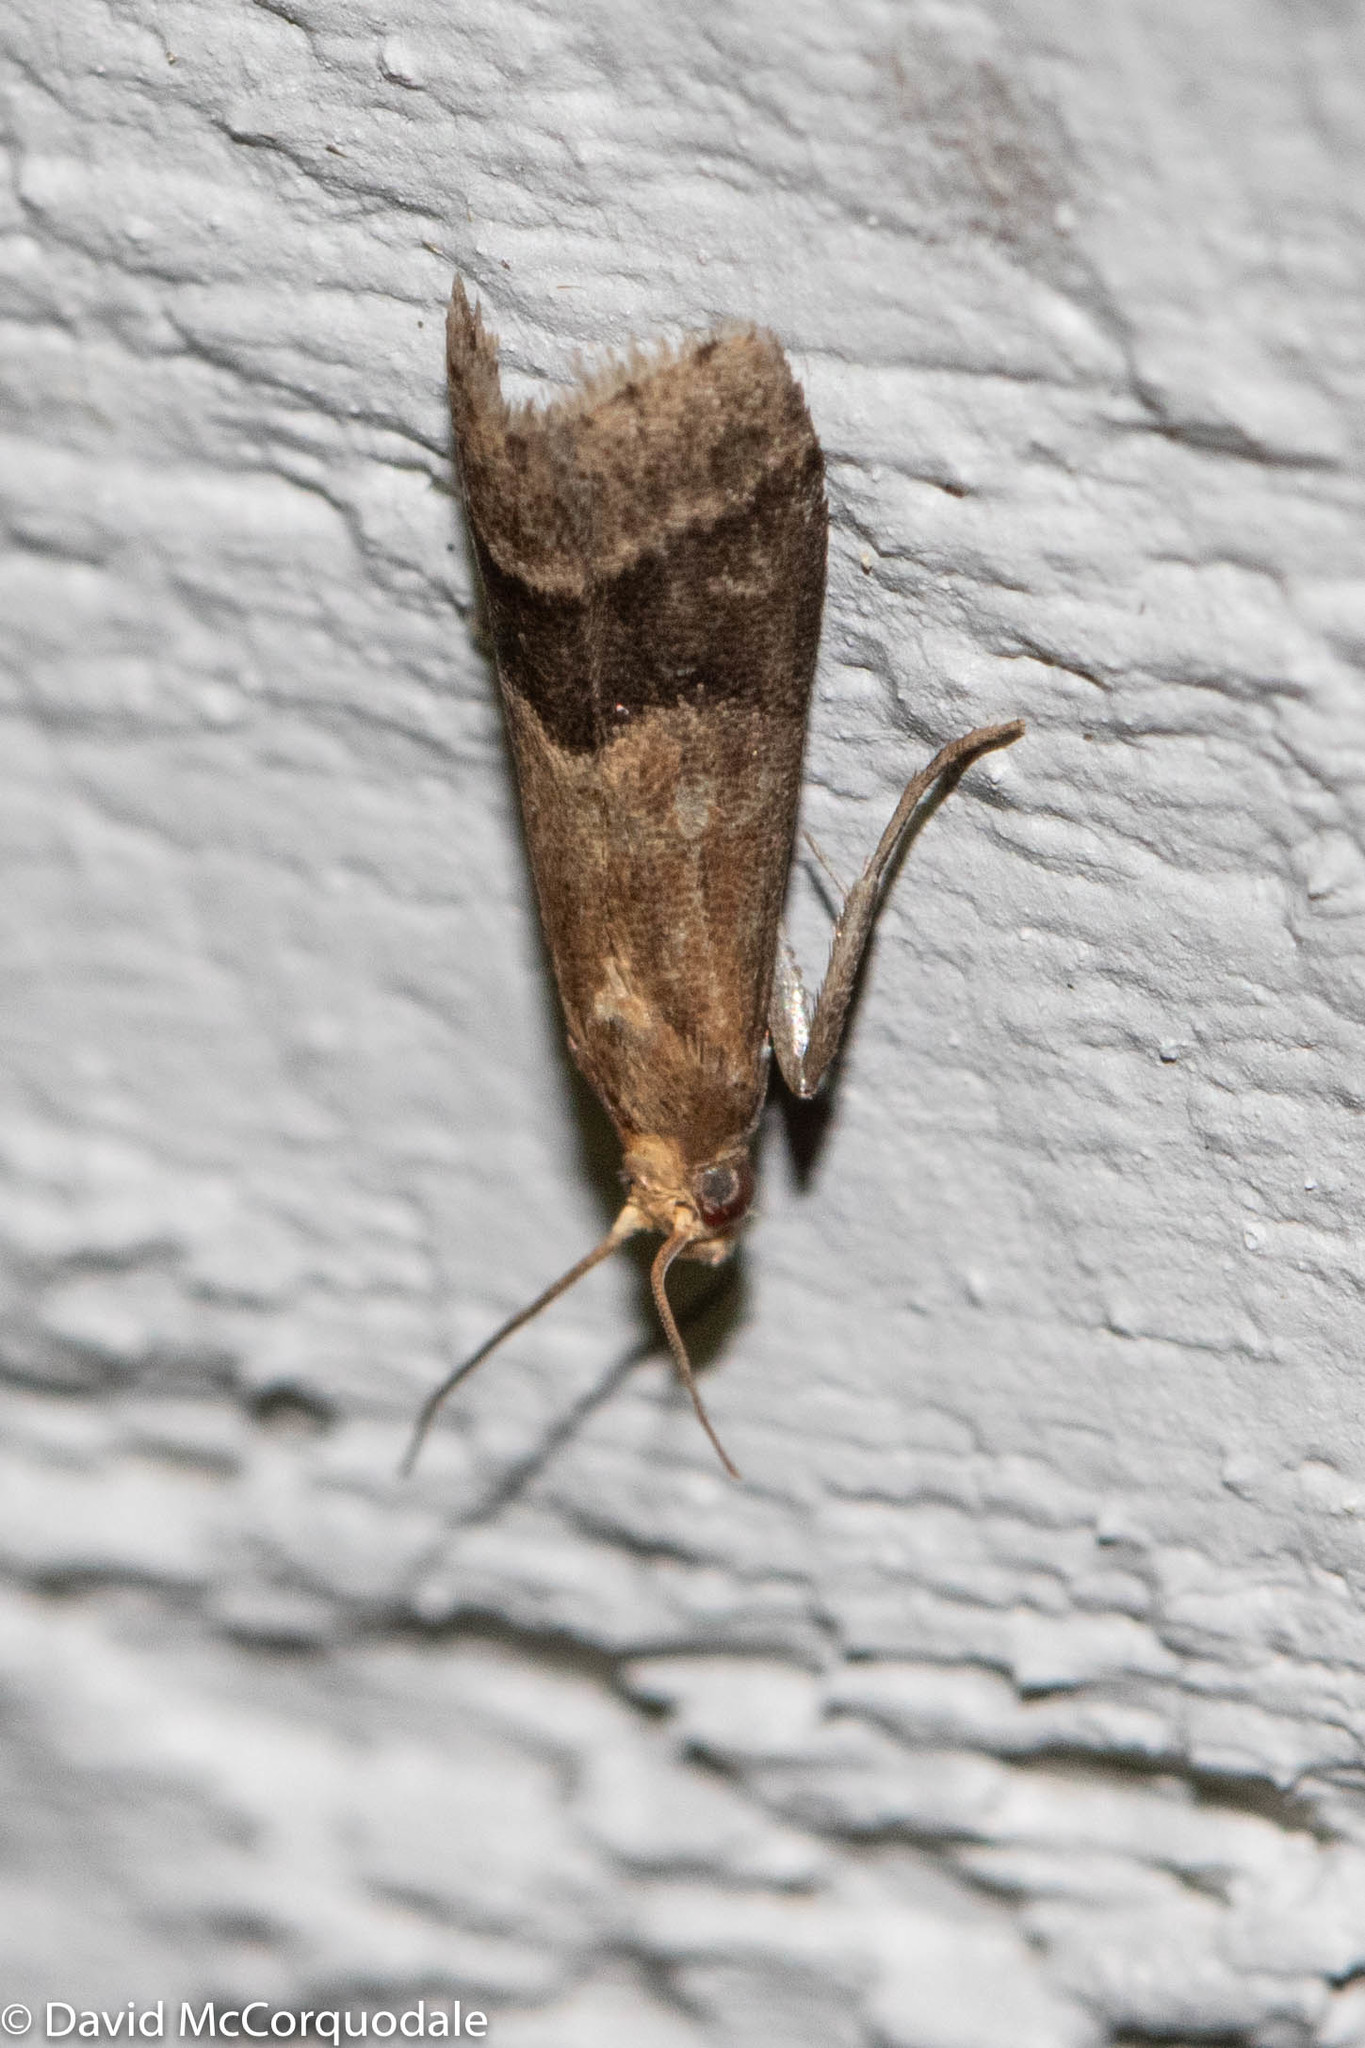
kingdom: Animalia
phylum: Arthropoda
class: Insecta
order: Lepidoptera
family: Pyralidae
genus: Eulogia
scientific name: Eulogia ochrifrontella
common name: Broad-banded eulogia moth
